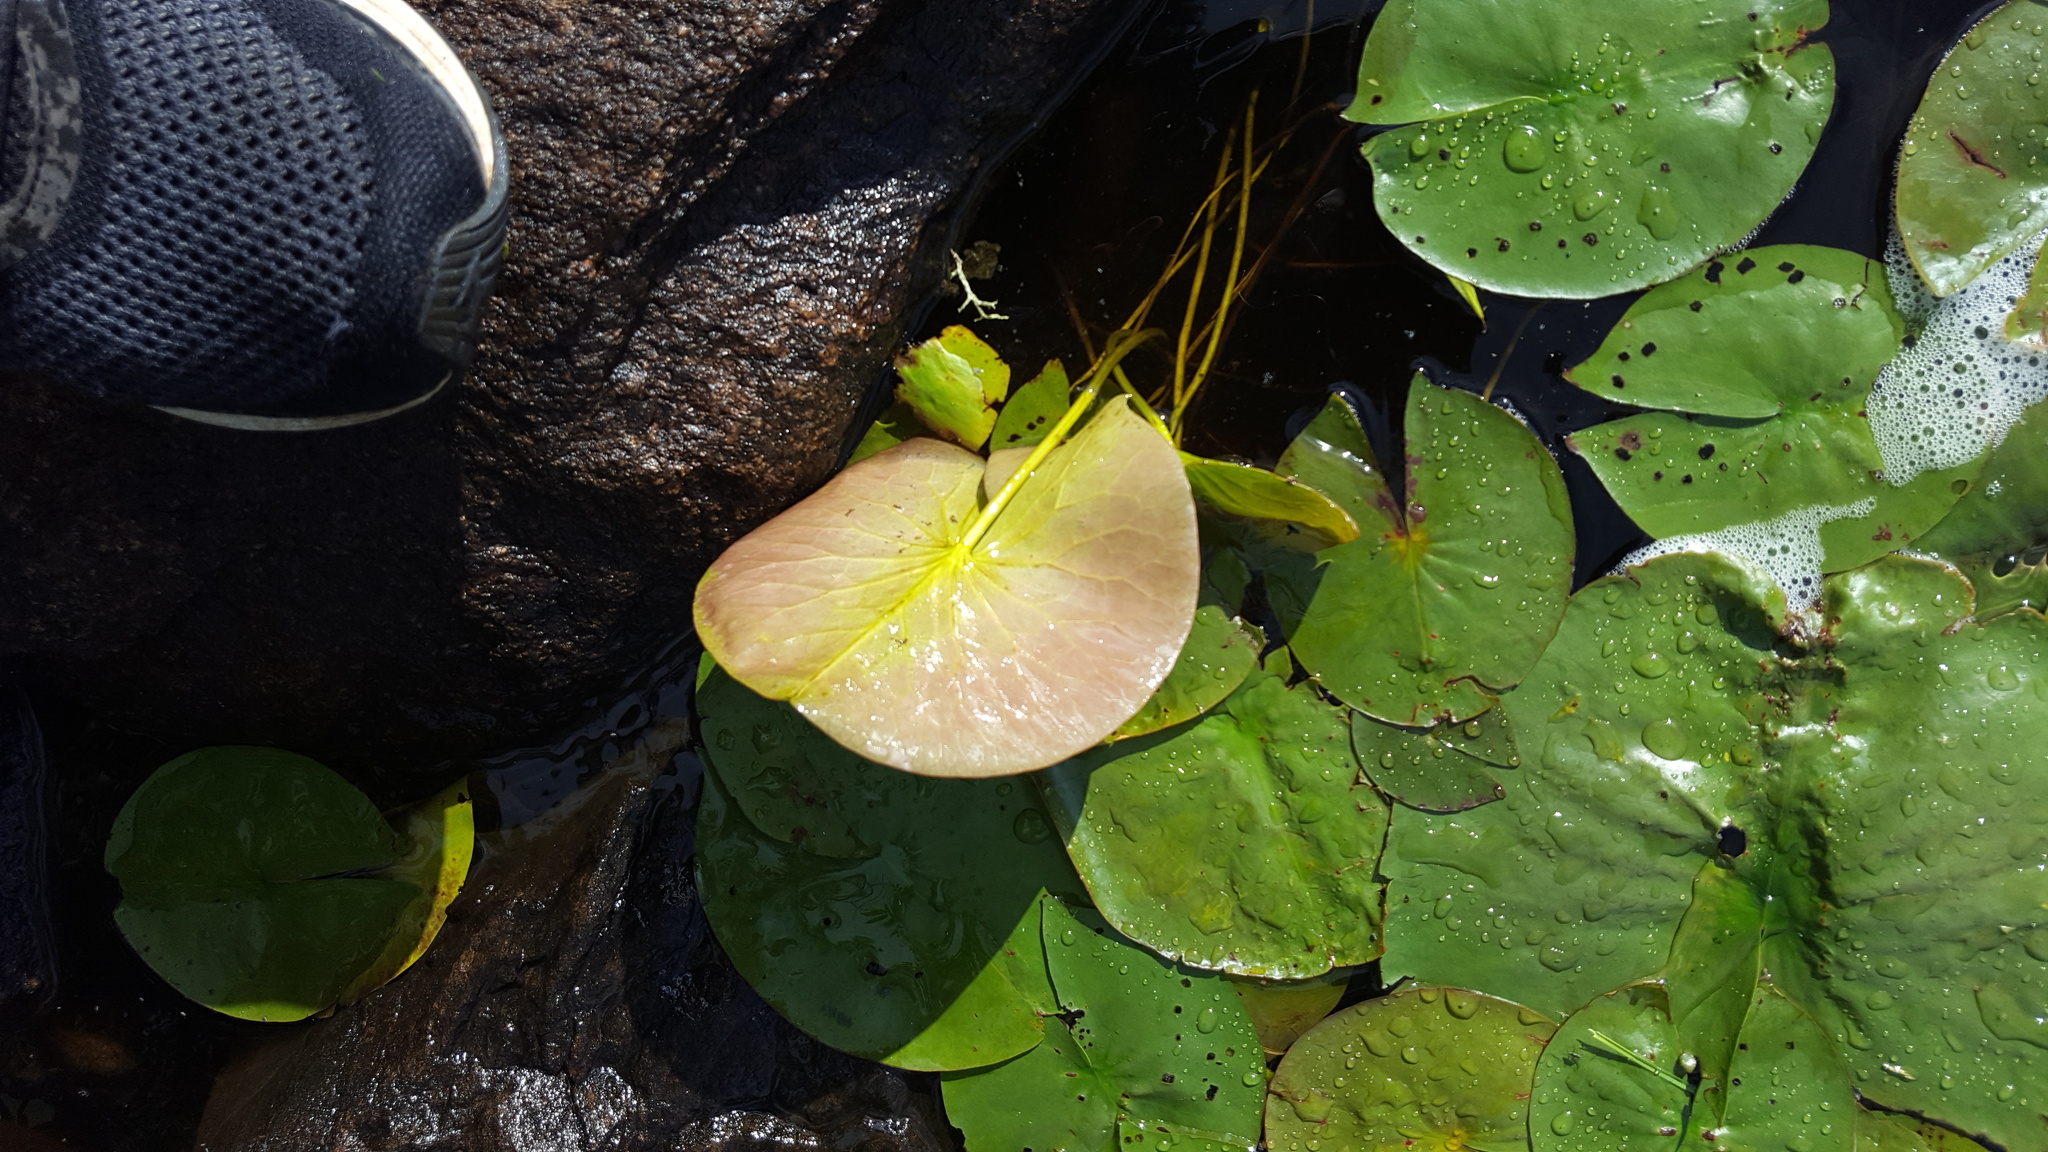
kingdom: Plantae
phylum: Tracheophyta
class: Magnoliopsida
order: Nymphaeales
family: Nymphaeaceae
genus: Nymphaea
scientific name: Nymphaea odorata
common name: Fragrant water-lily
